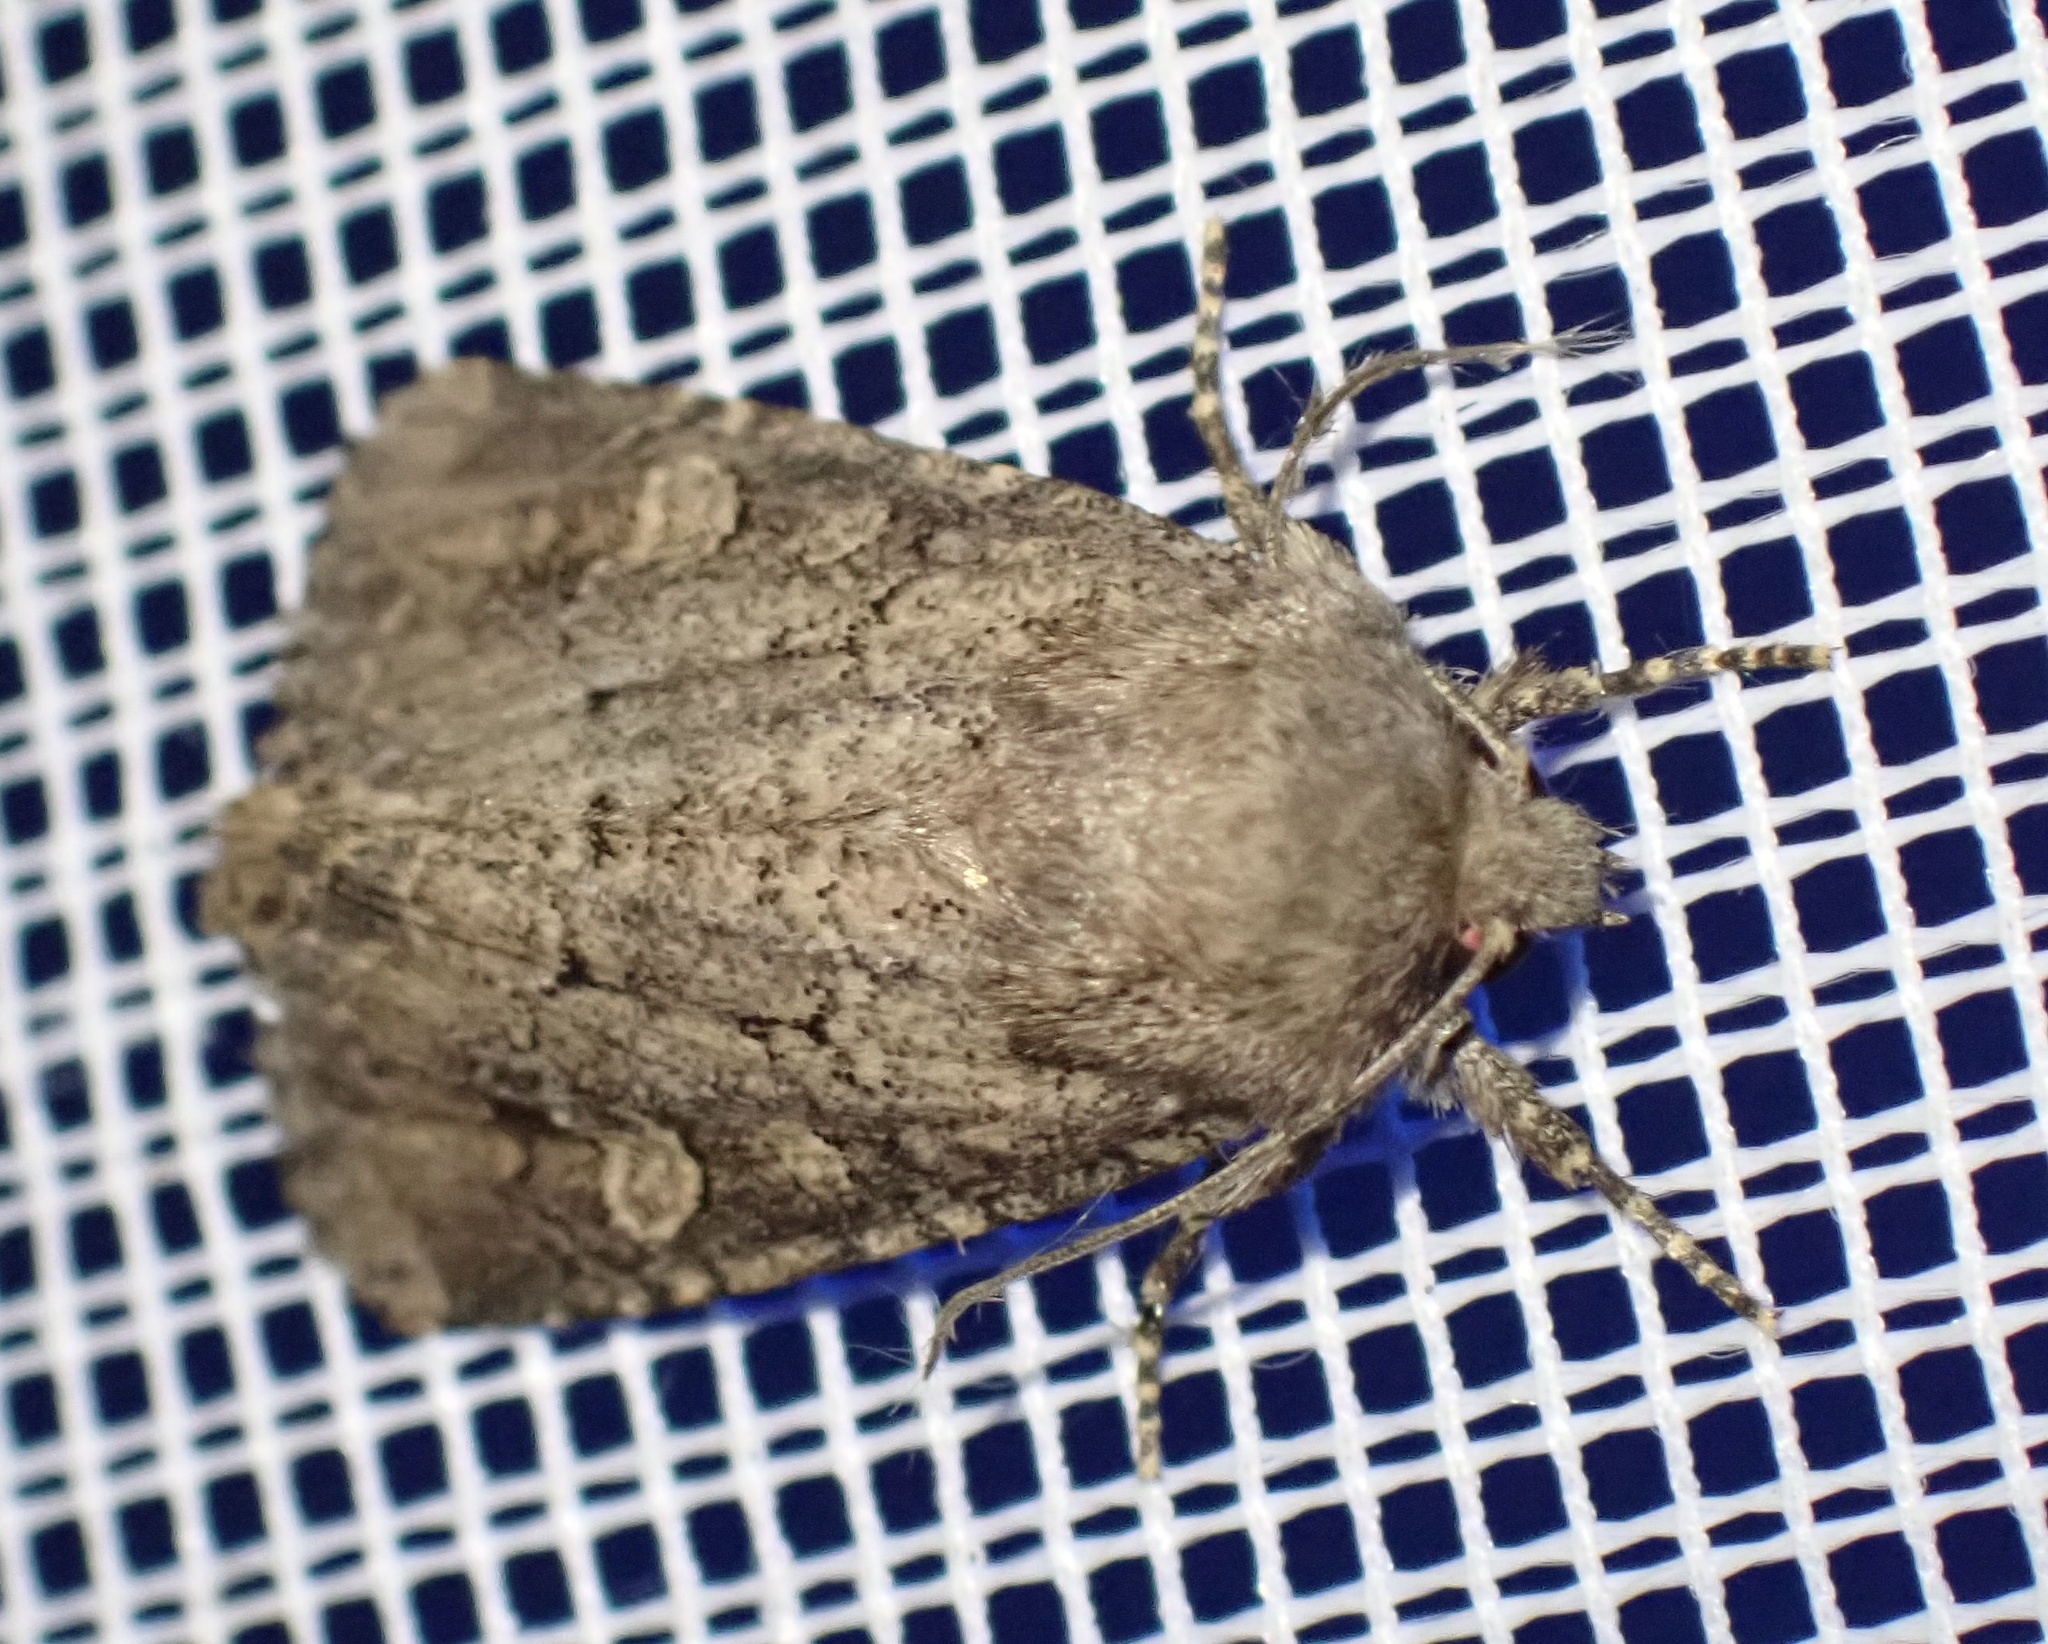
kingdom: Animalia
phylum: Arthropoda
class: Insecta
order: Lepidoptera
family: Noctuidae
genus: Luperina
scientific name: Luperina testacea
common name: Flounced rustic
